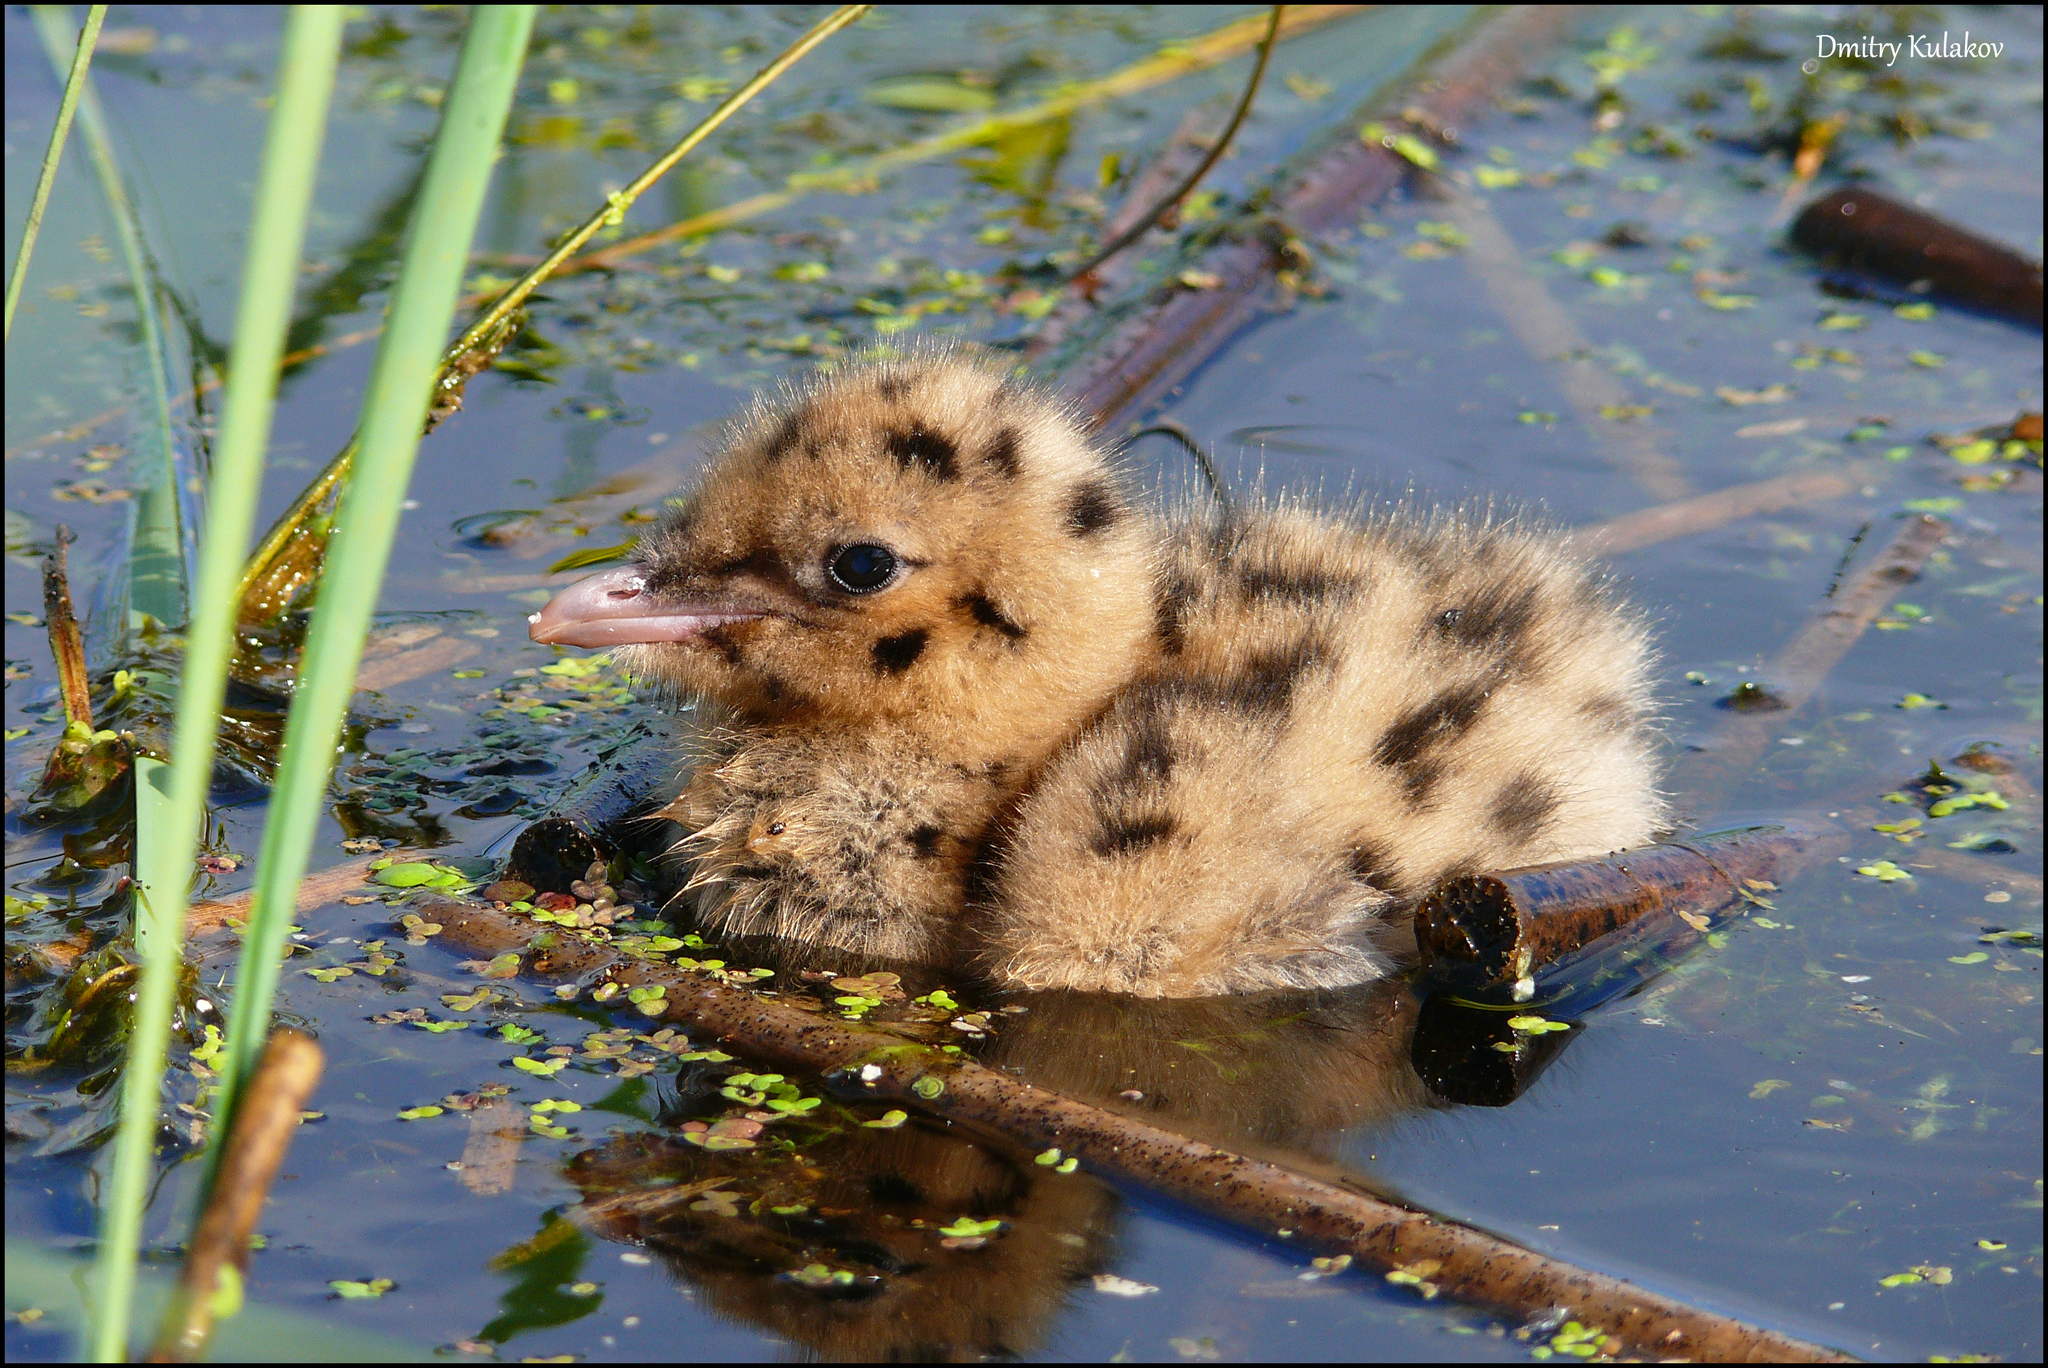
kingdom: Animalia
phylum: Chordata
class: Aves
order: Charadriiformes
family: Laridae
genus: Chroicocephalus
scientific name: Chroicocephalus ridibundus
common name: Black-headed gull
